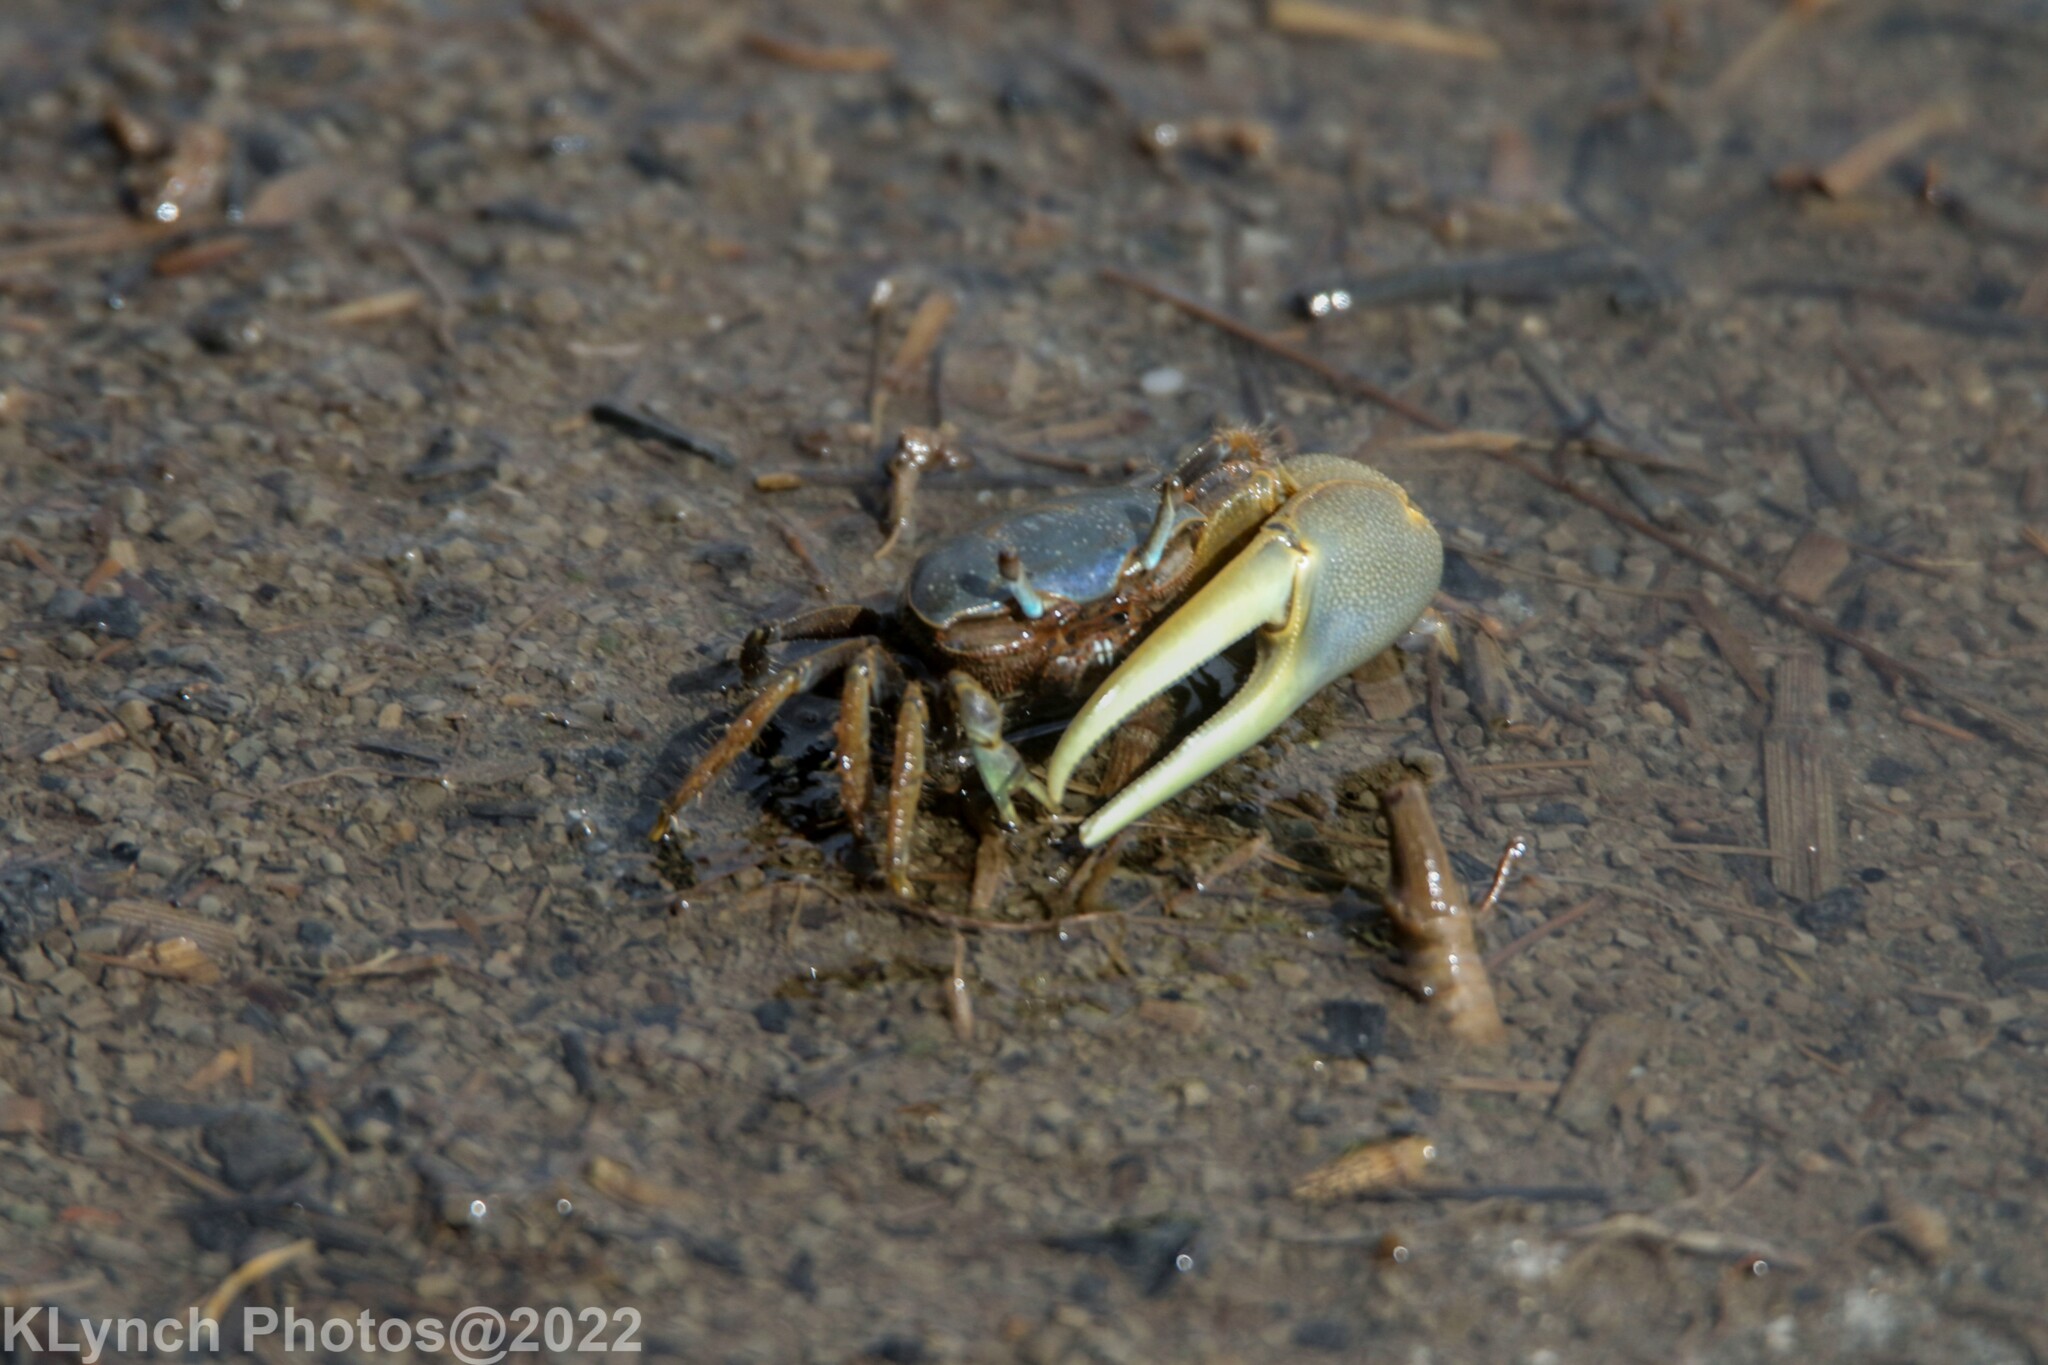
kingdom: Animalia
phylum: Arthropoda
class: Malacostraca
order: Decapoda
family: Ocypodidae
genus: Minuca
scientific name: Minuca pugnax
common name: Mud fiddler crab
